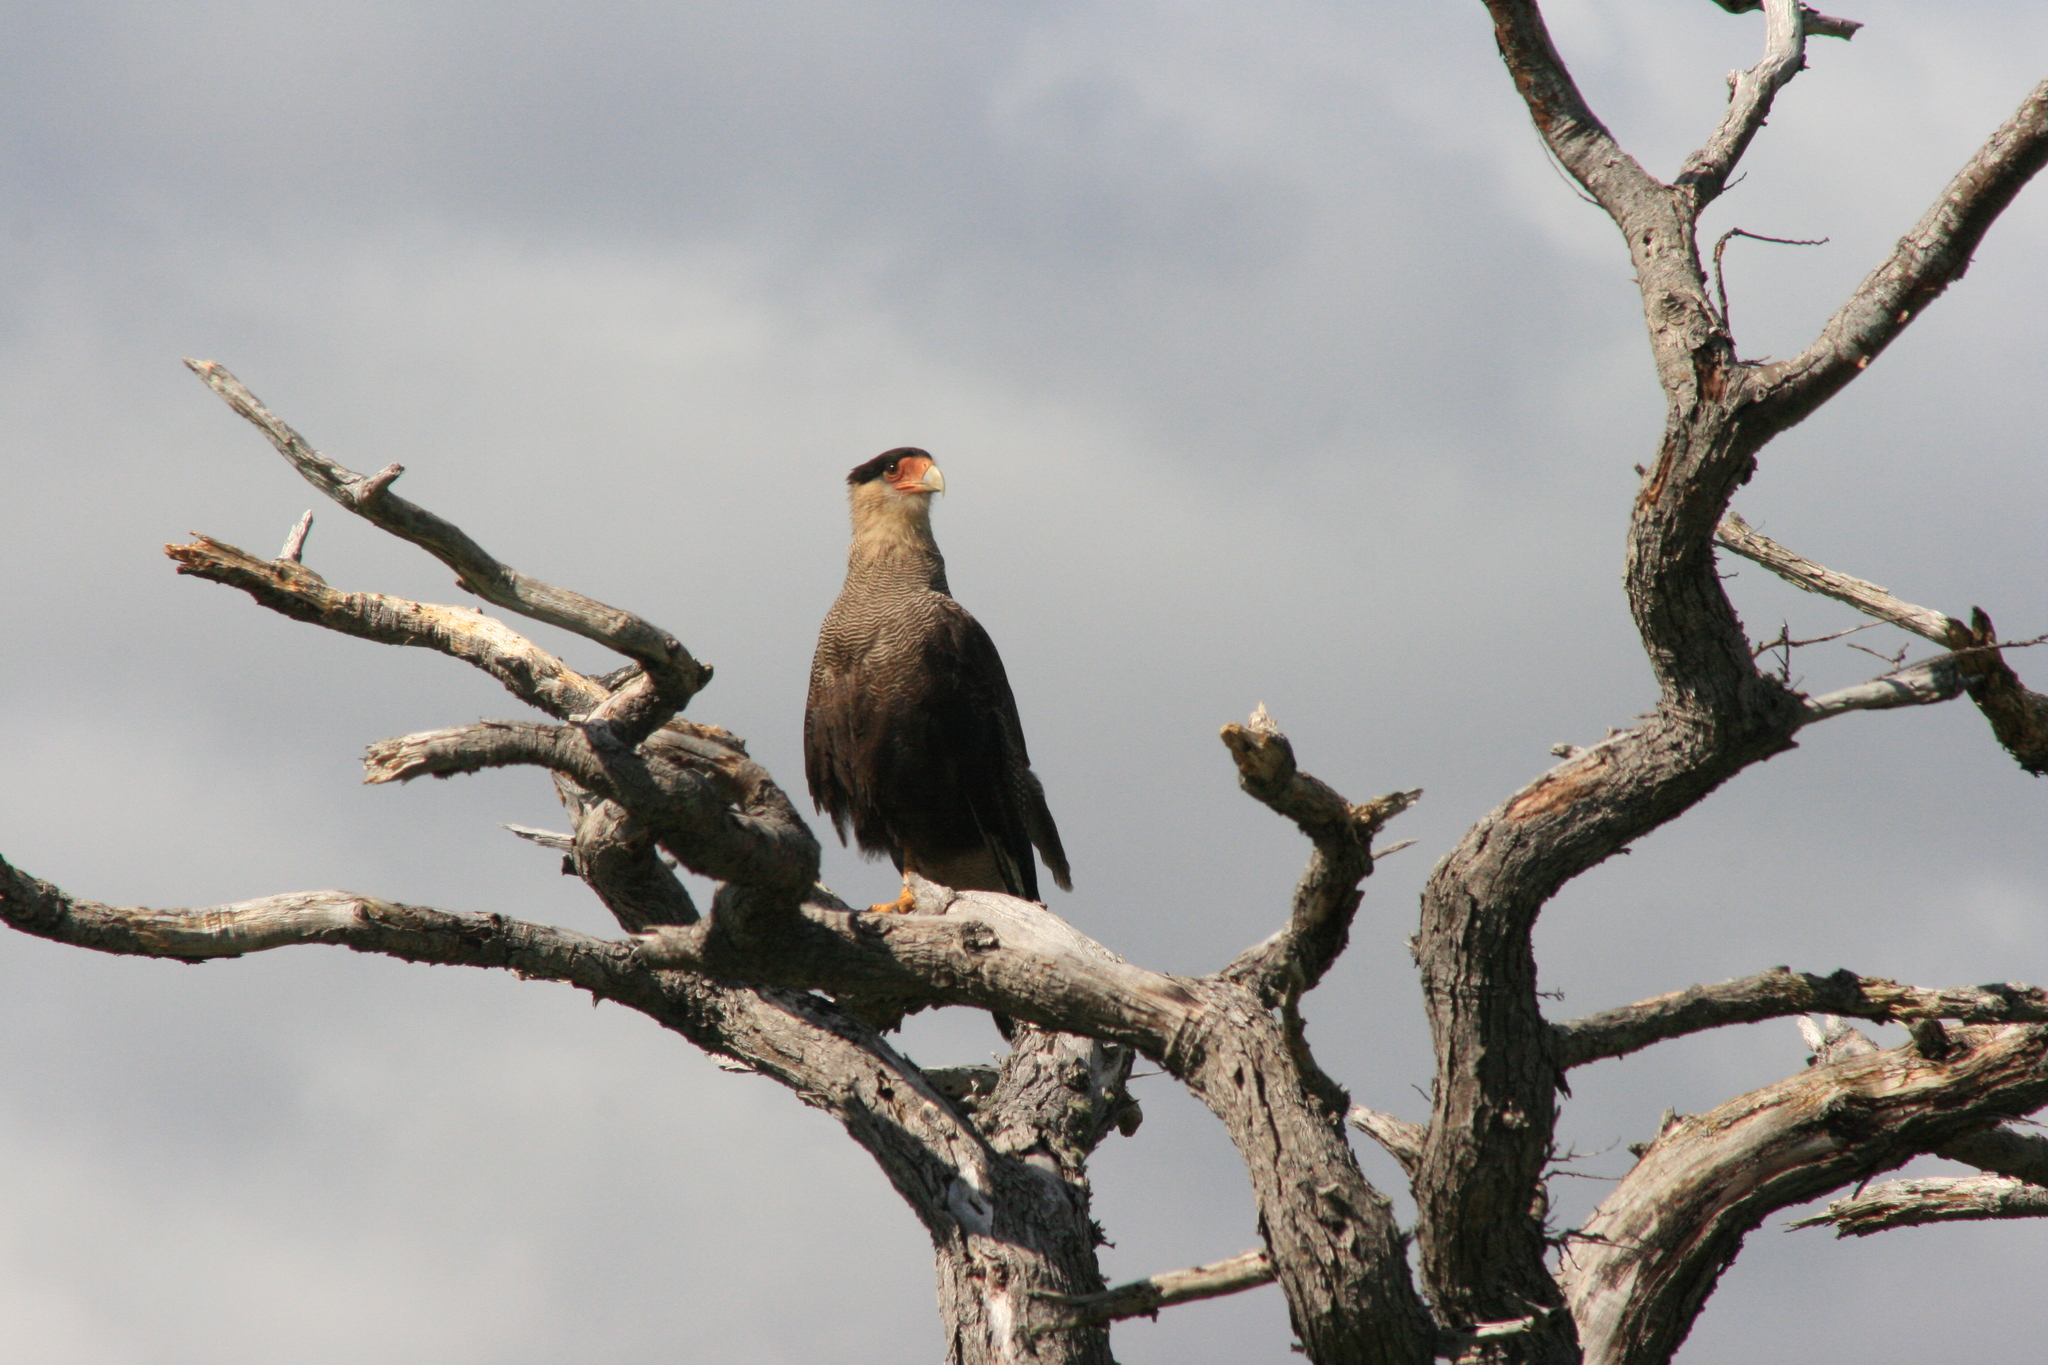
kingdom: Animalia
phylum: Chordata
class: Aves
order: Falconiformes
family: Falconidae
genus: Caracara
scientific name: Caracara plancus
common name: Southern caracara
